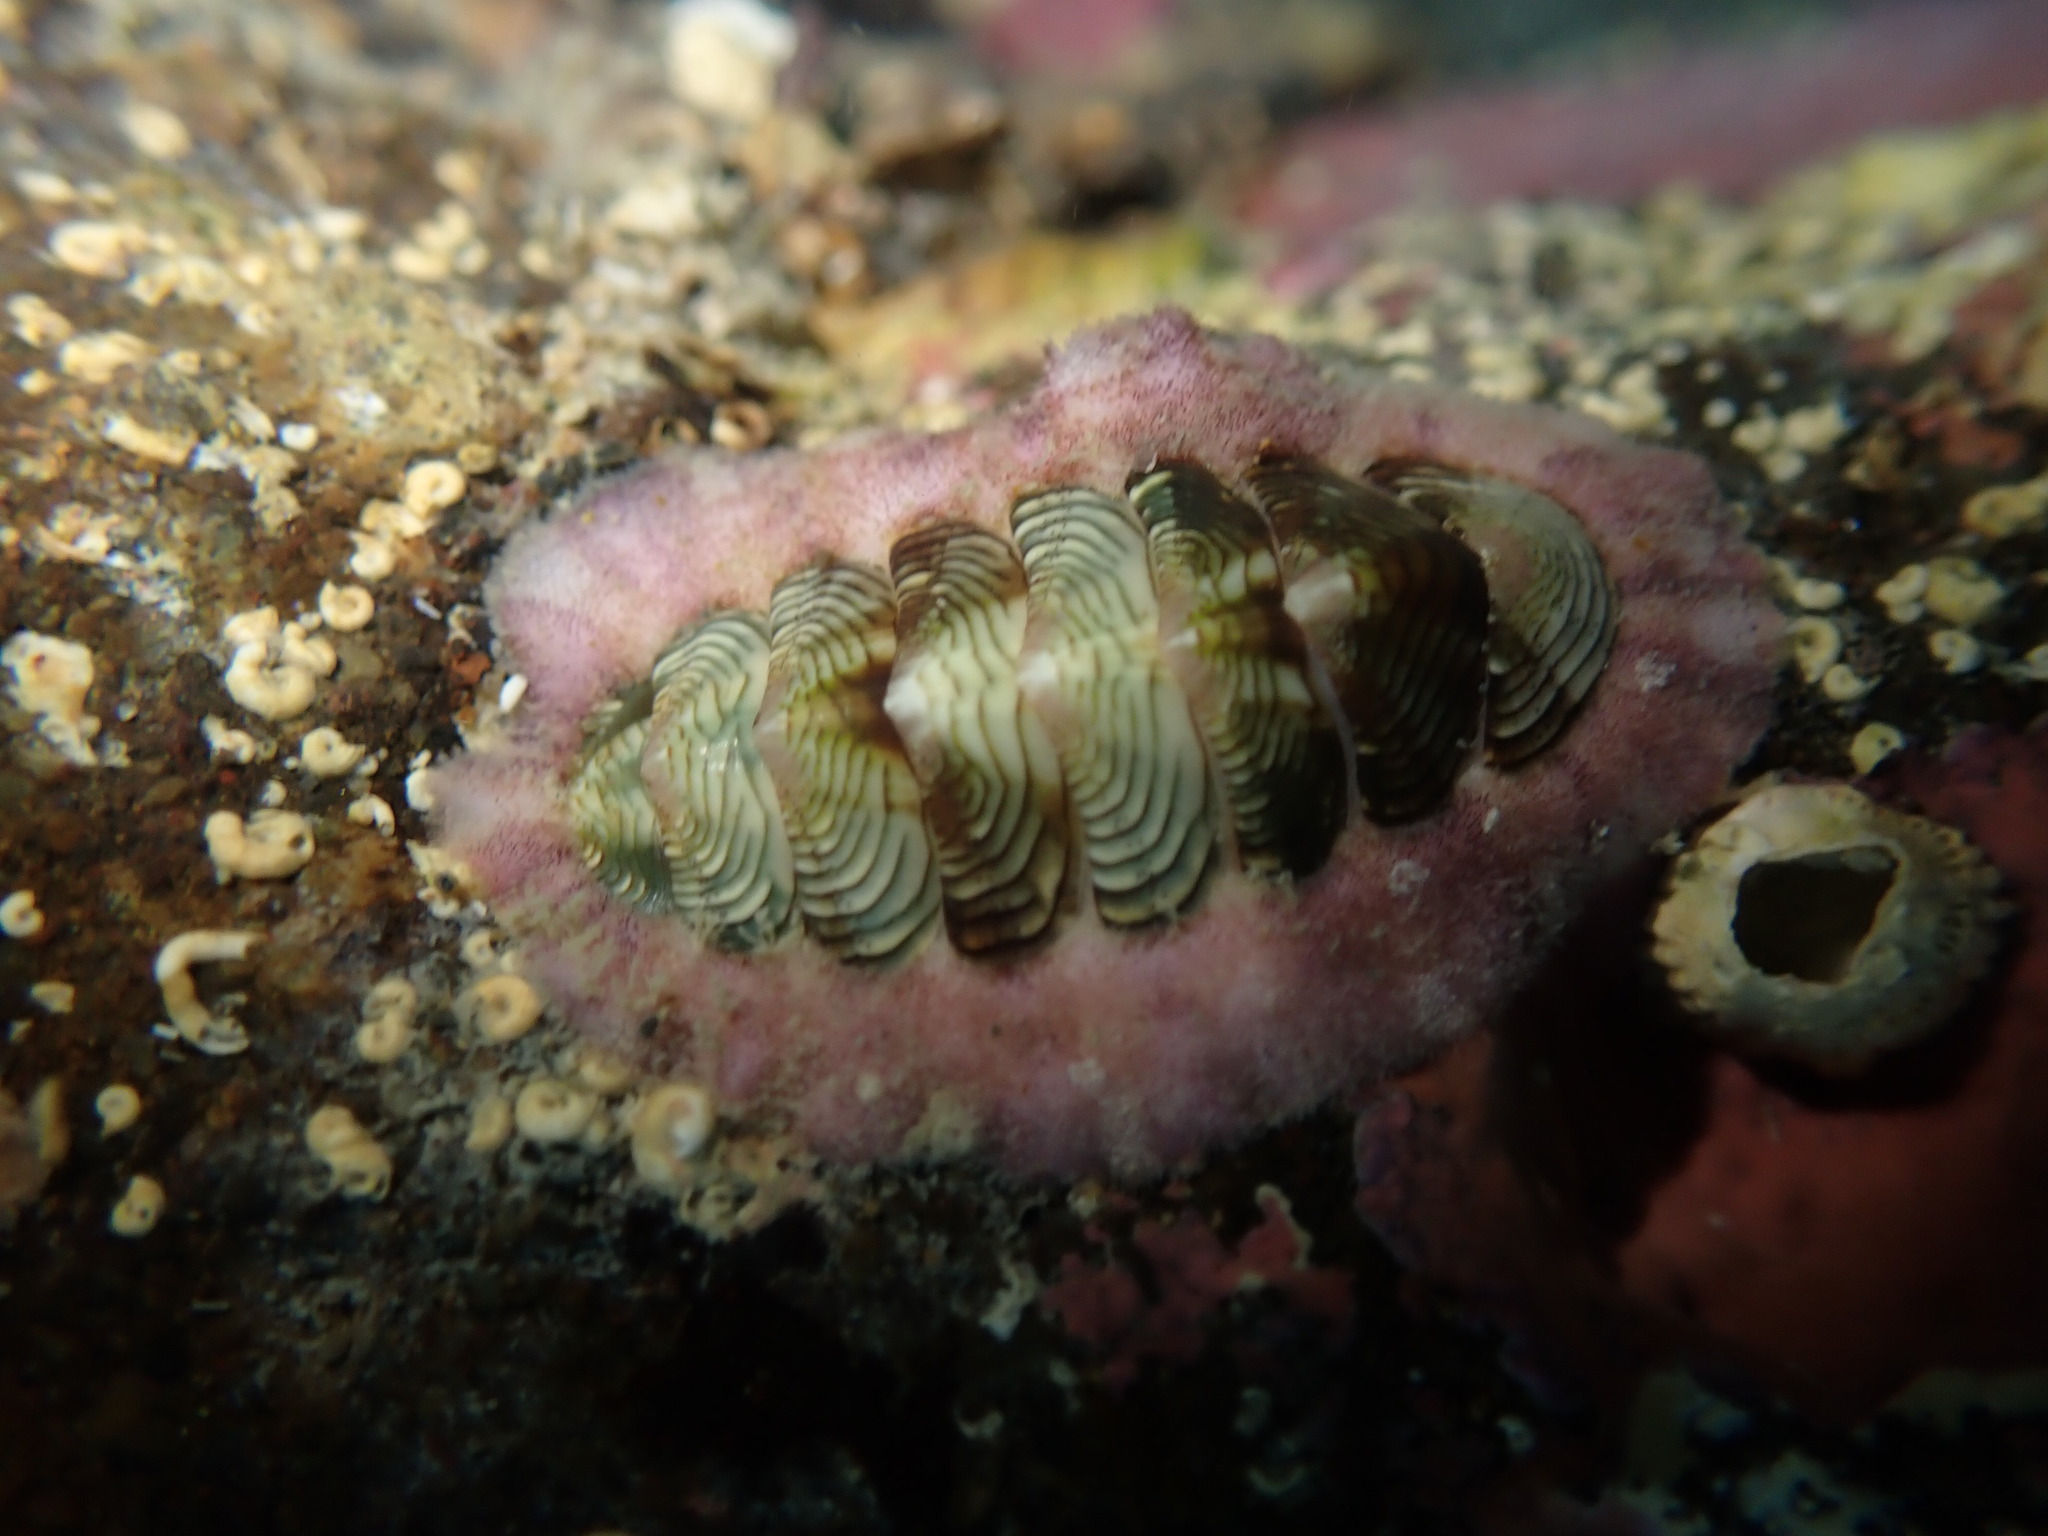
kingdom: Animalia
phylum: Mollusca
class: Polyplacophora
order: Chitonida
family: Chitonidae
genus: Onithochiton
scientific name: Onithochiton neglectus
